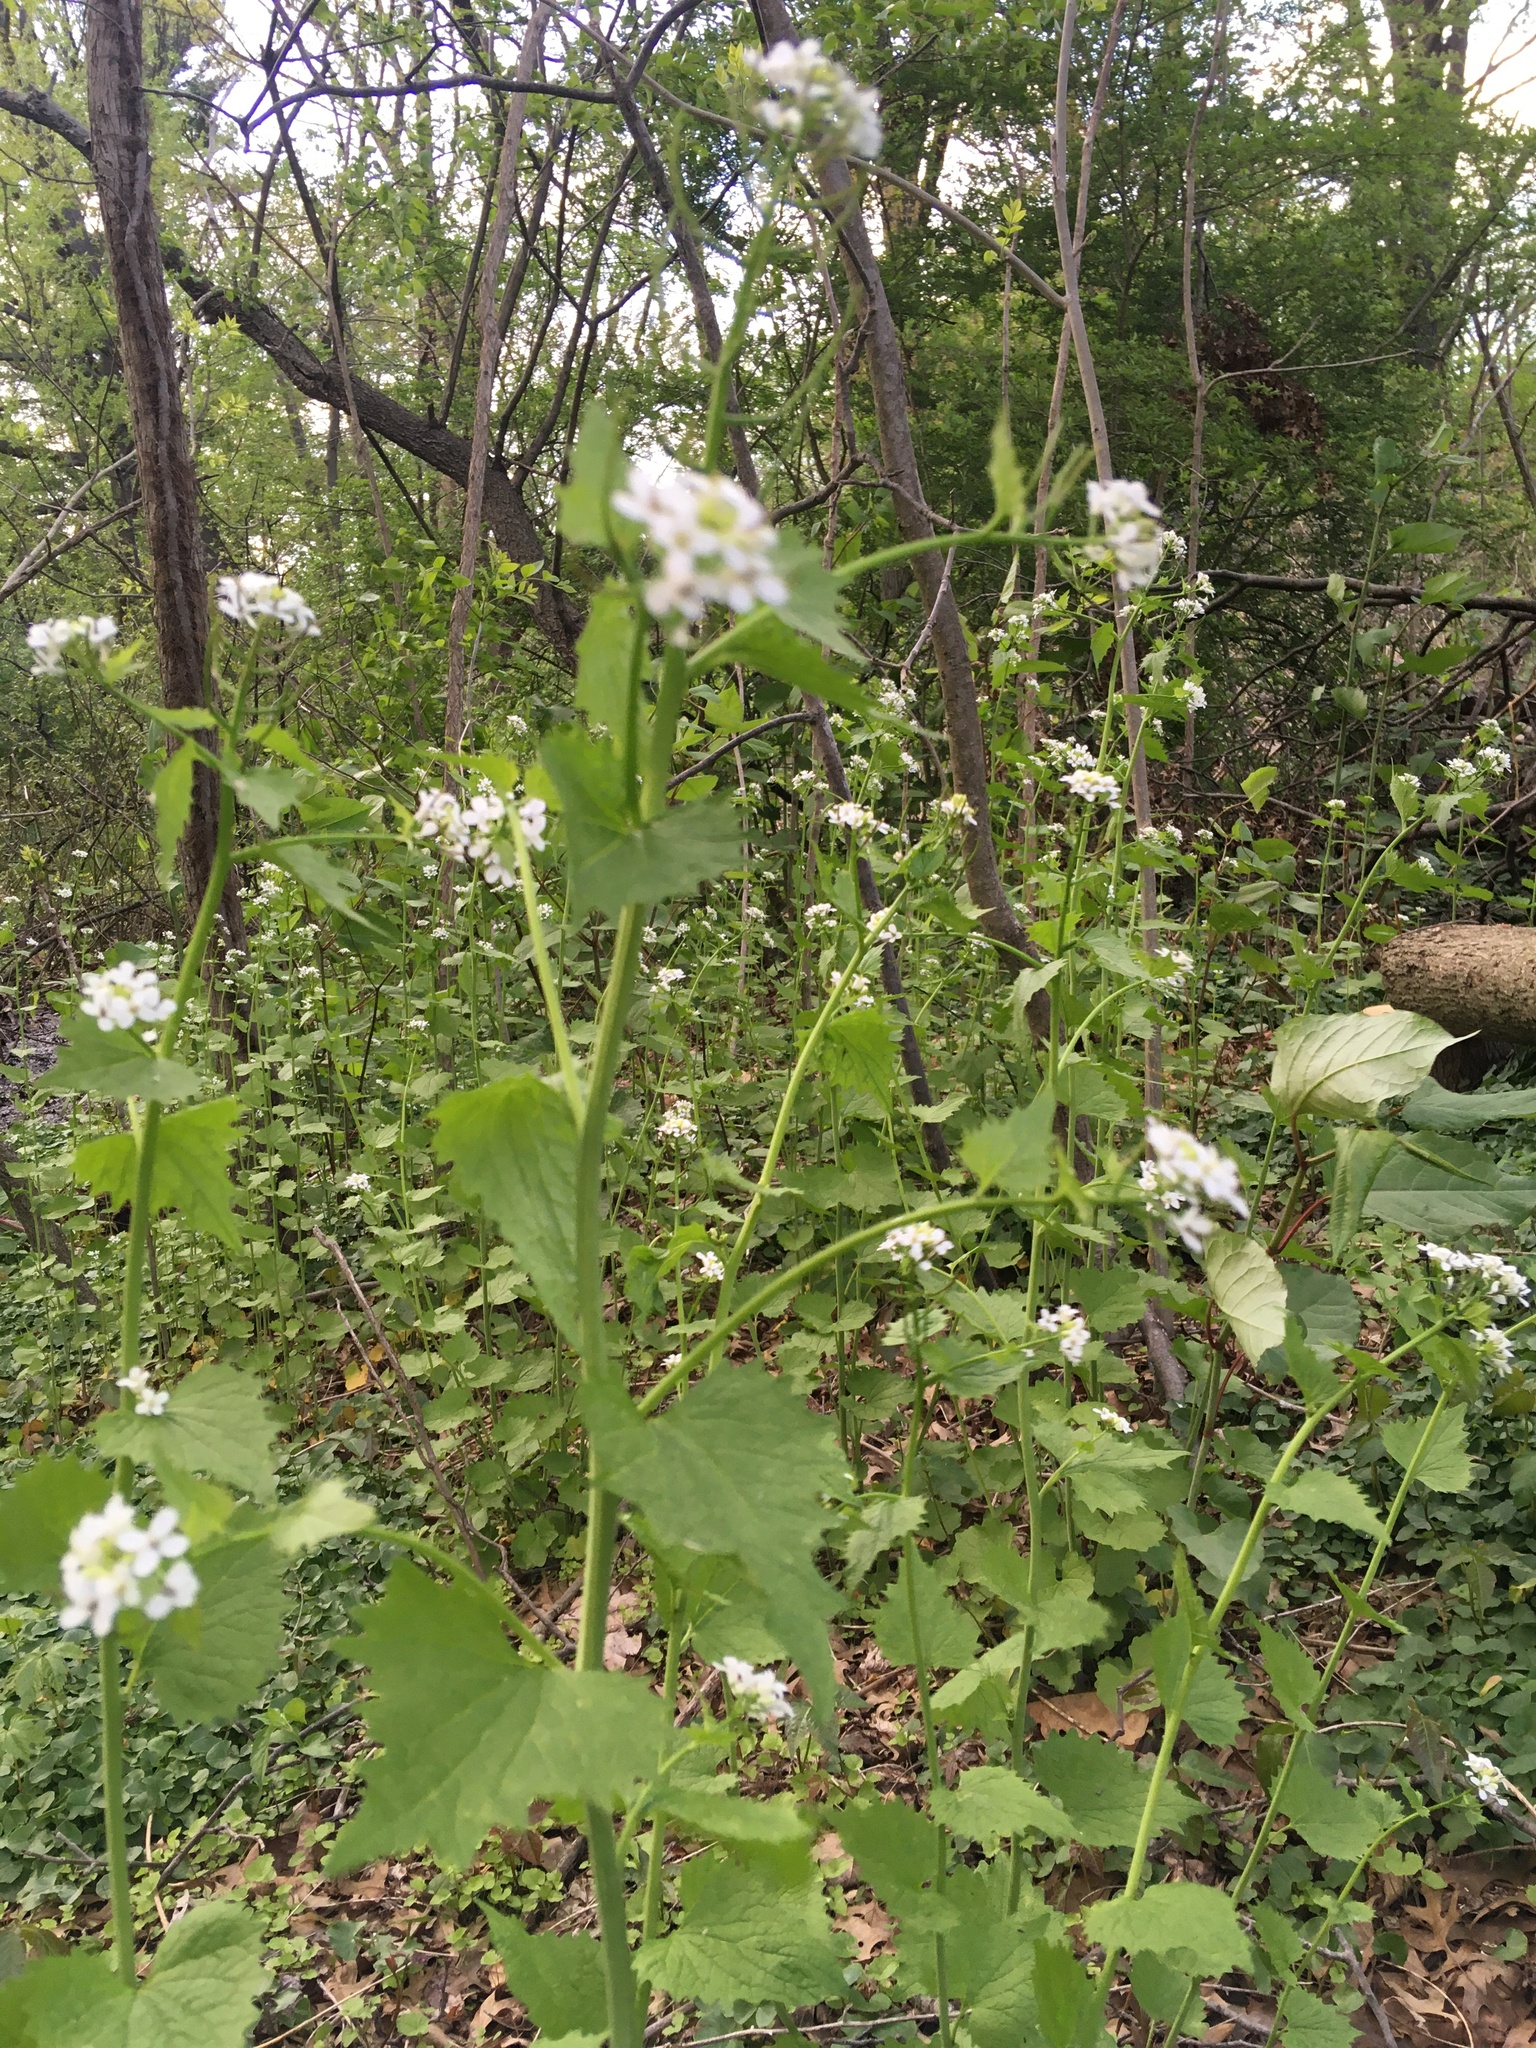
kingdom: Plantae
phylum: Tracheophyta
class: Magnoliopsida
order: Brassicales
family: Brassicaceae
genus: Alliaria
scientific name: Alliaria petiolata
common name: Garlic mustard
